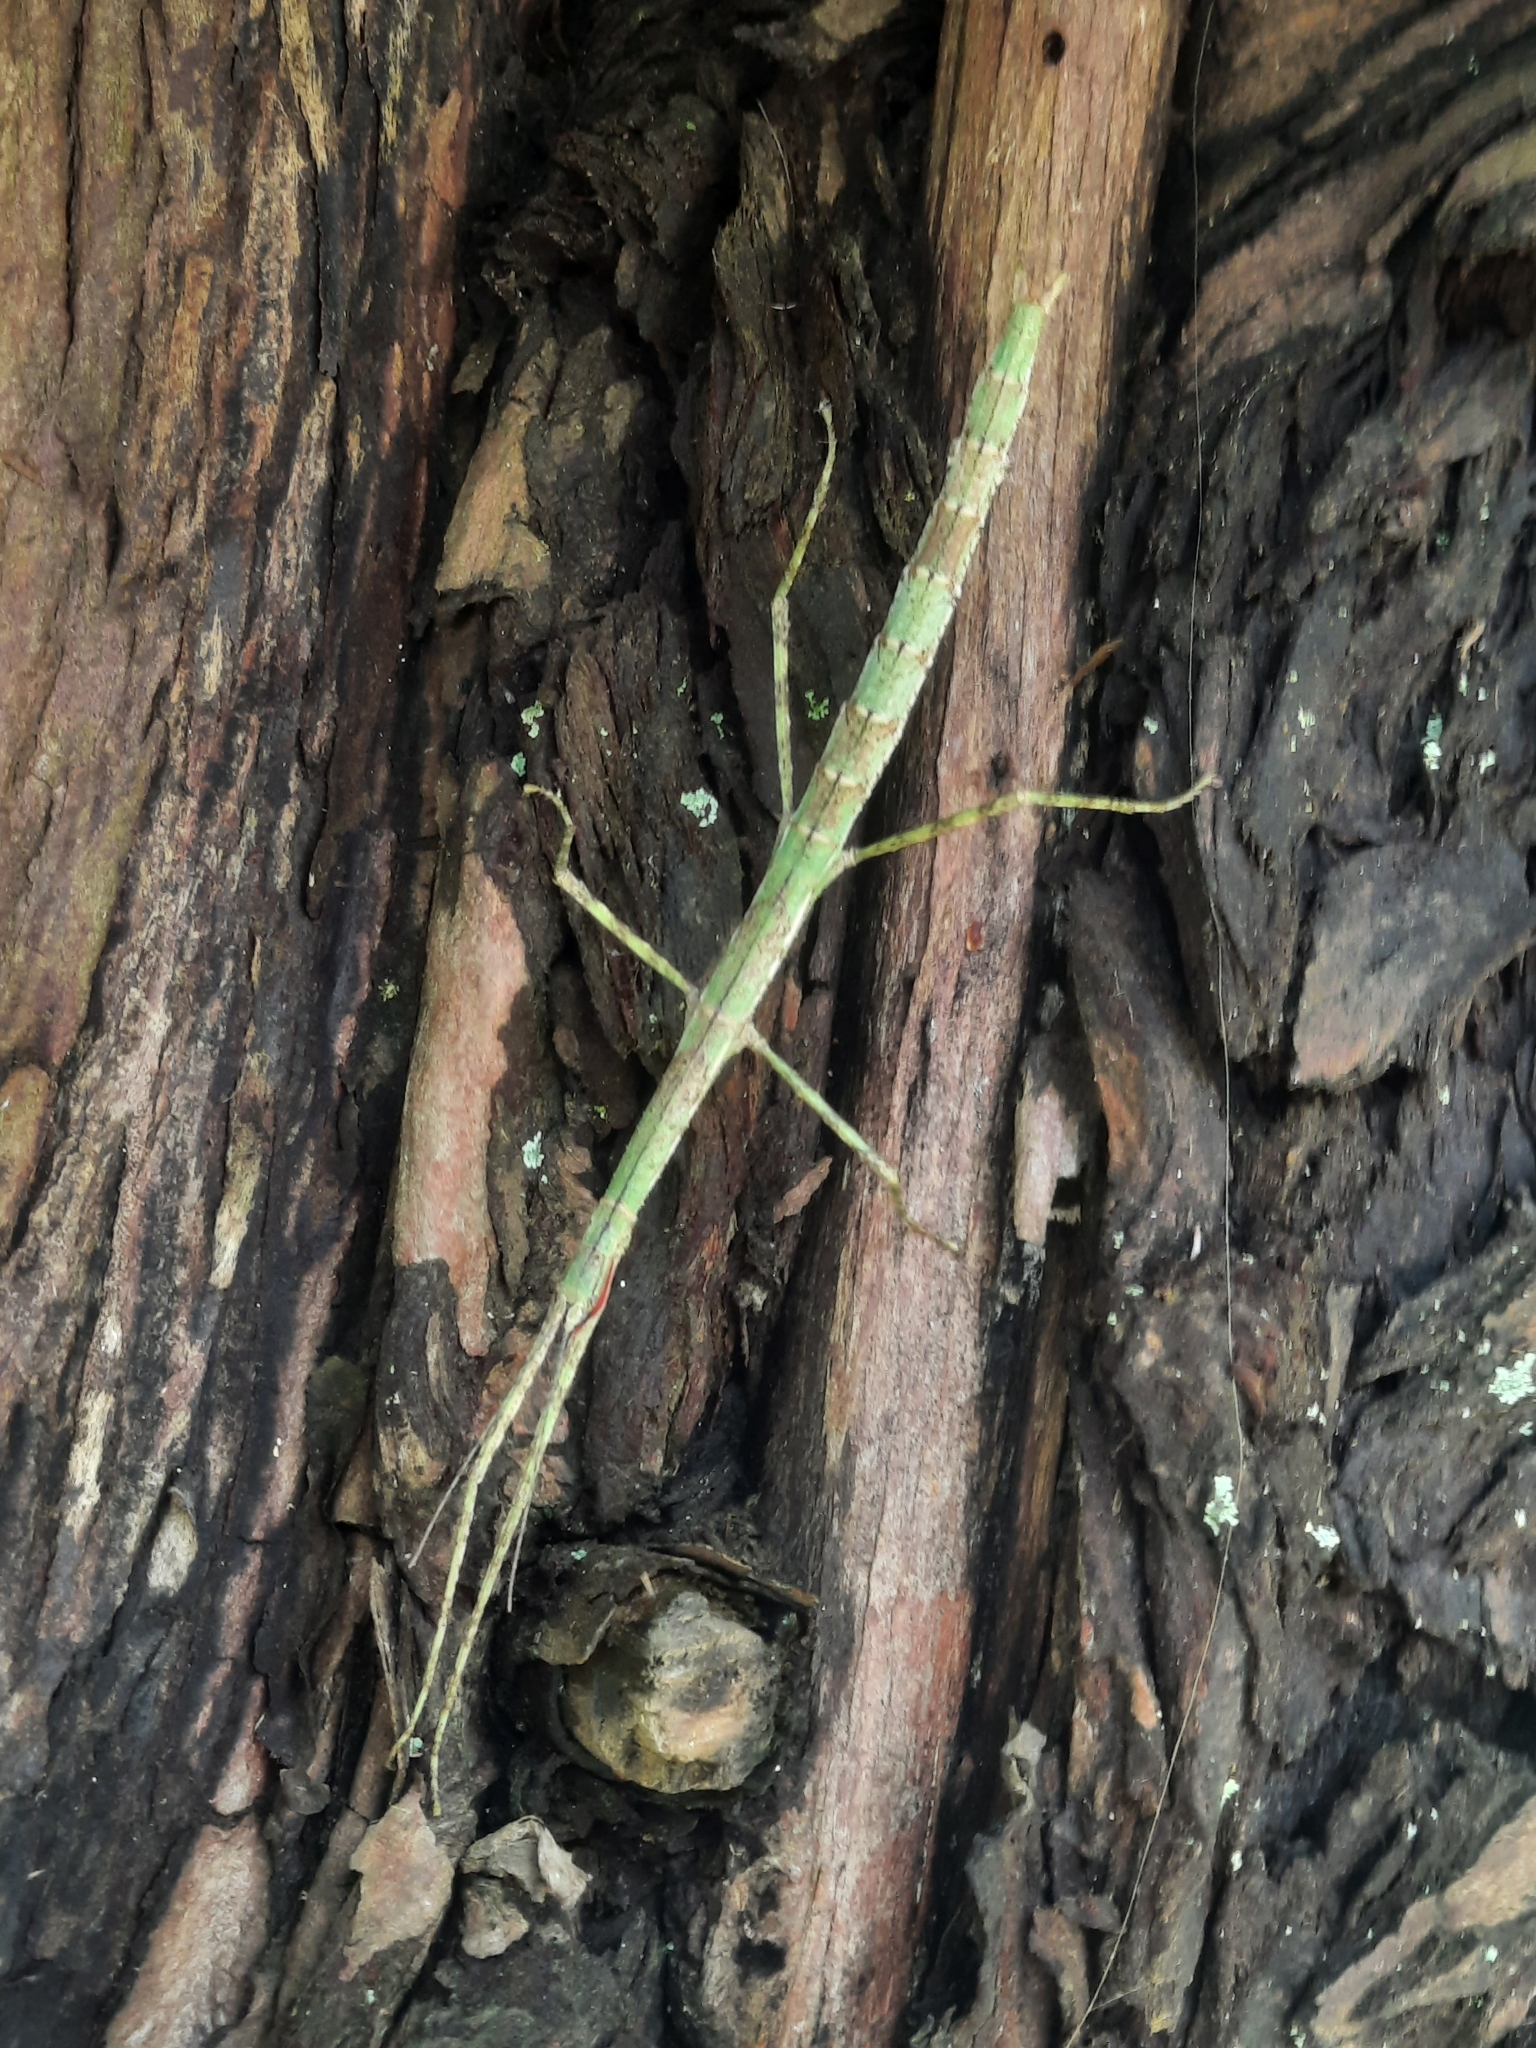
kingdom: Animalia
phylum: Arthropoda
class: Insecta
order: Phasmida
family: Phasmatidae
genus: Clitarchus
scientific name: Clitarchus hookeri
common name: Smooth stick insect
